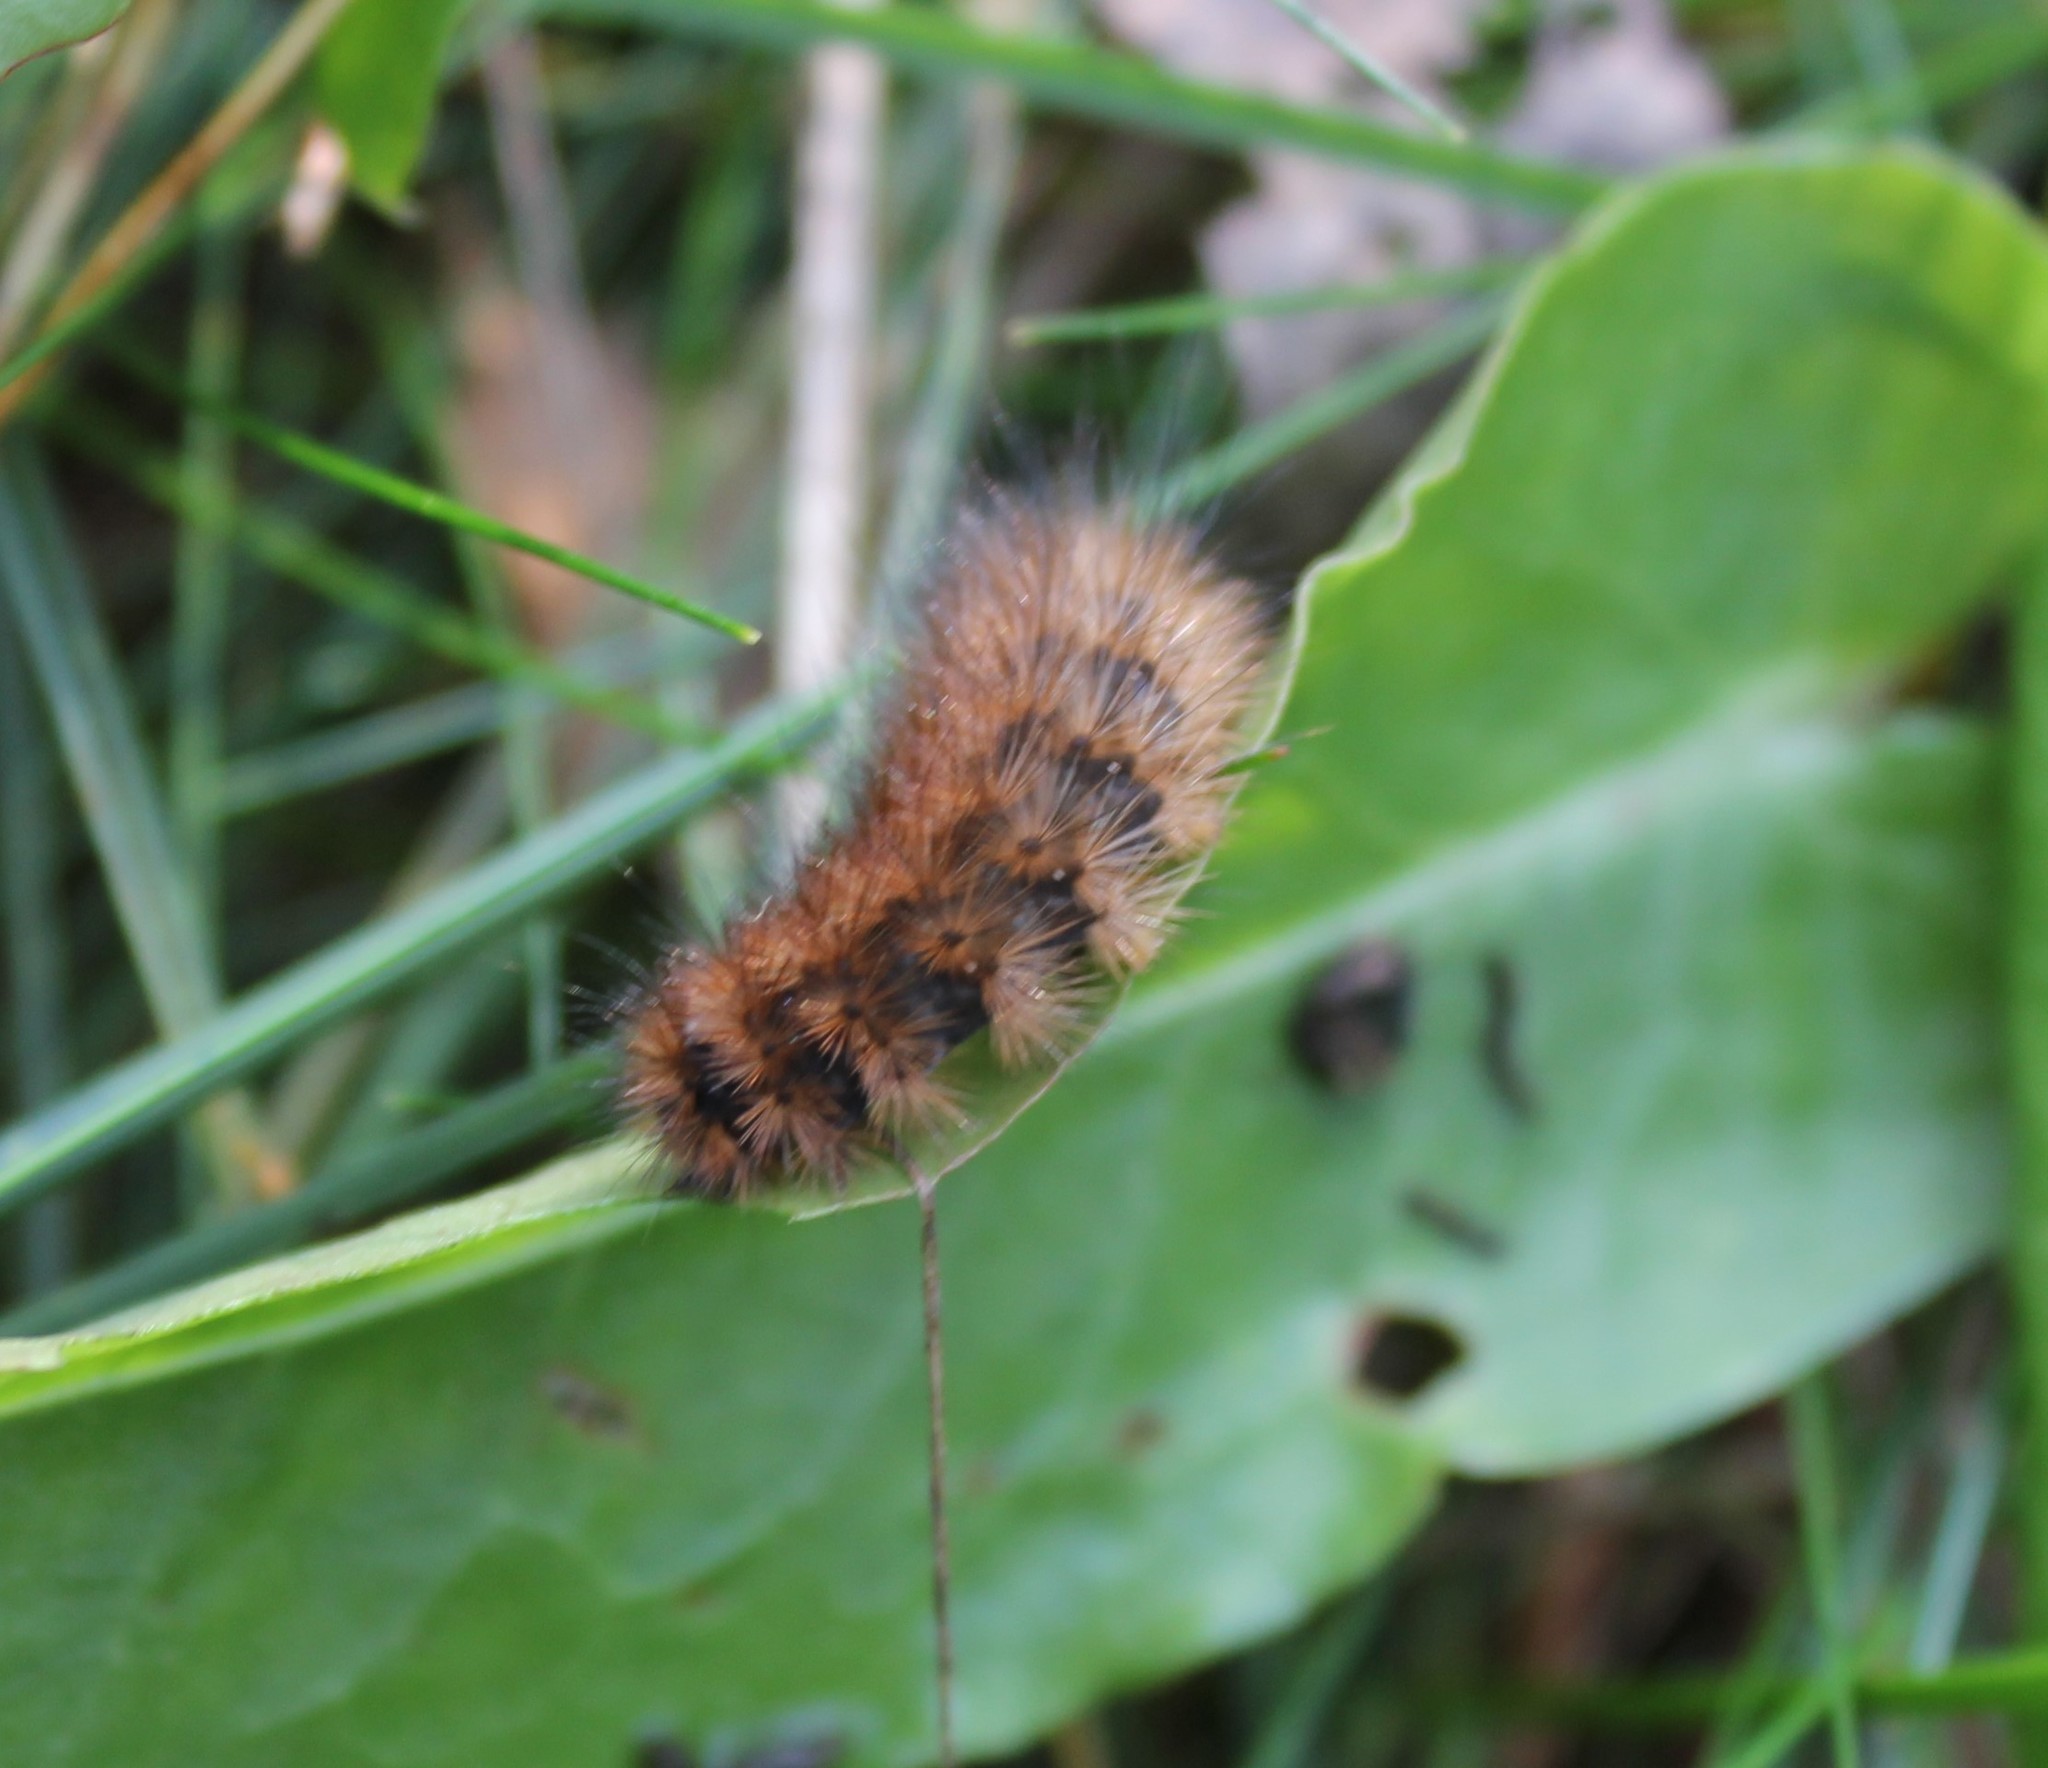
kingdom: Animalia
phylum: Arthropoda
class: Insecta
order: Lepidoptera
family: Erebidae
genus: Phragmatobia
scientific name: Phragmatobia fuliginosa
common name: Ruby tiger
